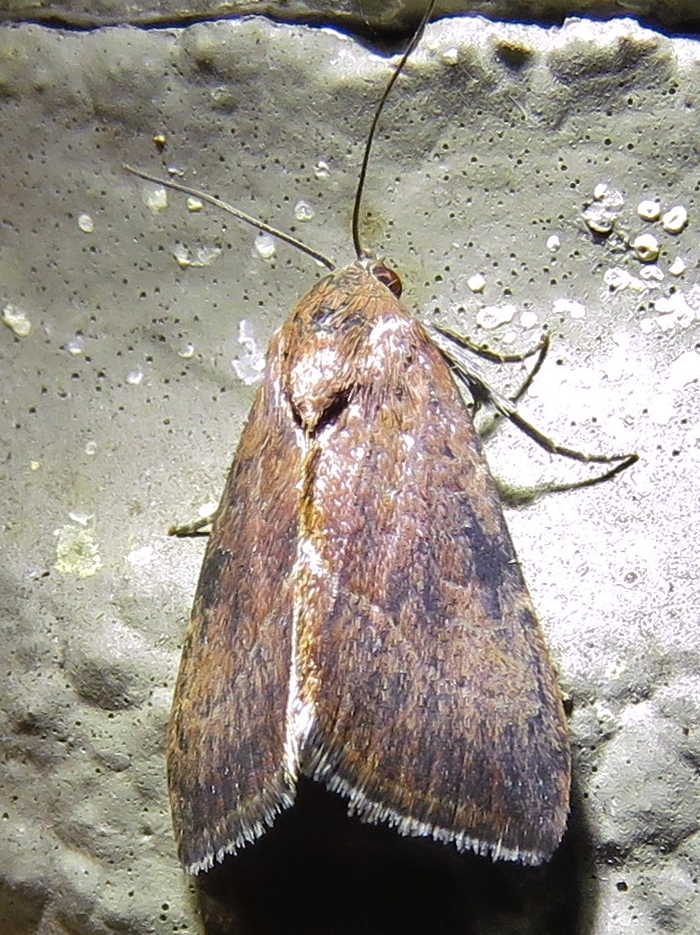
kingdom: Animalia
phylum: Arthropoda
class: Insecta
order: Lepidoptera
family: Noctuidae
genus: Galgula
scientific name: Galgula partita
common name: Wedgeling
